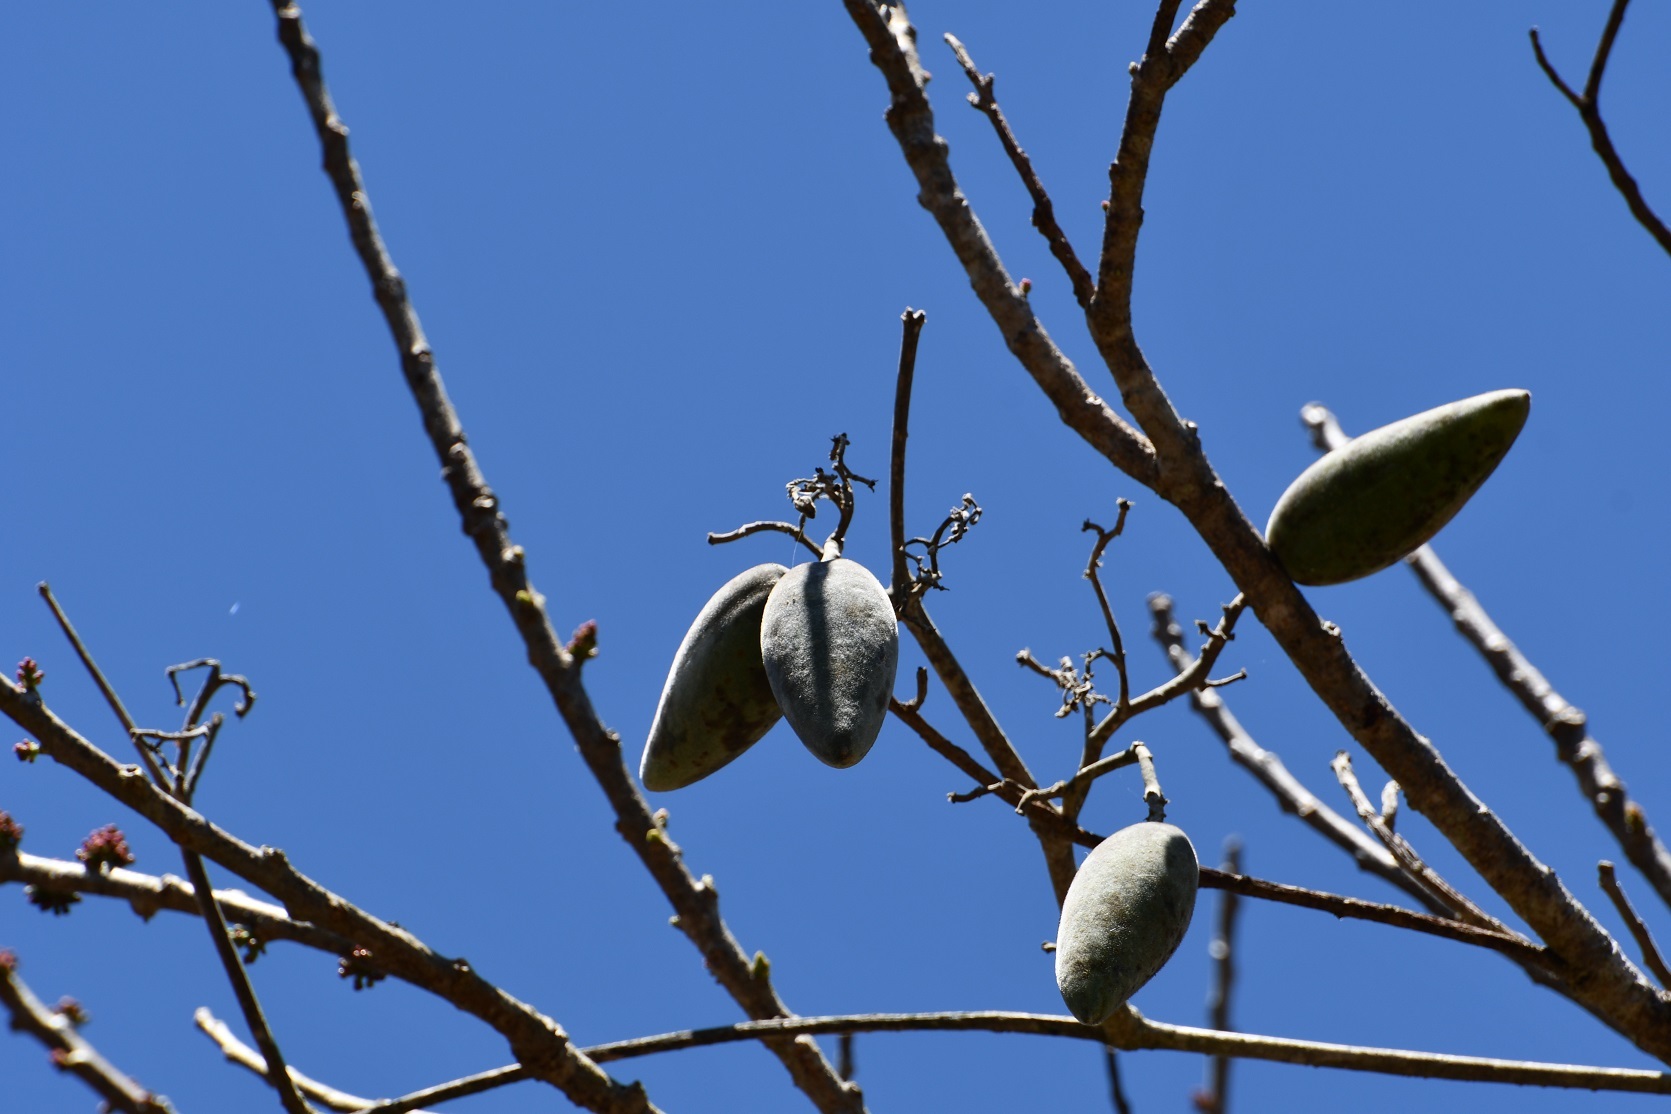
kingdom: Plantae
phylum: Tracheophyta
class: Magnoliopsida
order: Gentianales
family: Apocynaceae
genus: Ruehssia
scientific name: Ruehssia mexicana
